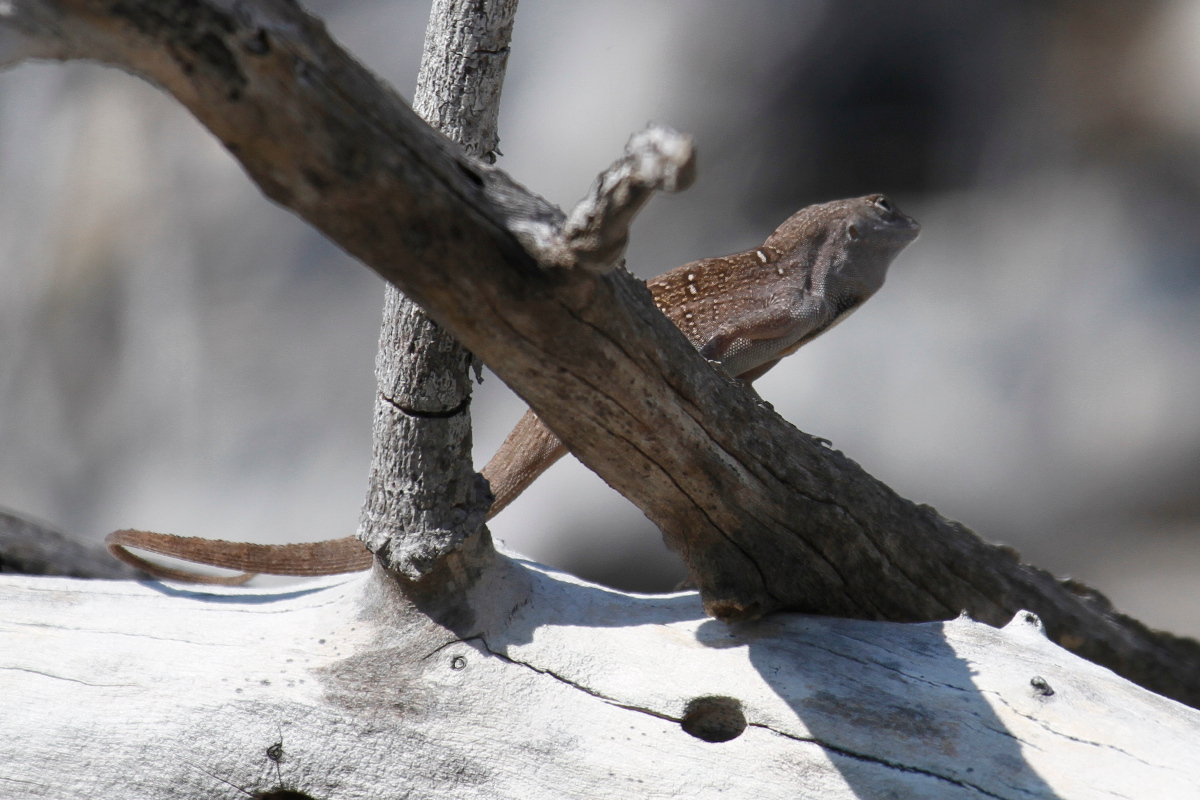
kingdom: Animalia
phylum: Chordata
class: Squamata
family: Dactyloidae
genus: Anolis
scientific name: Anolis sagrei
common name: Brown anole
